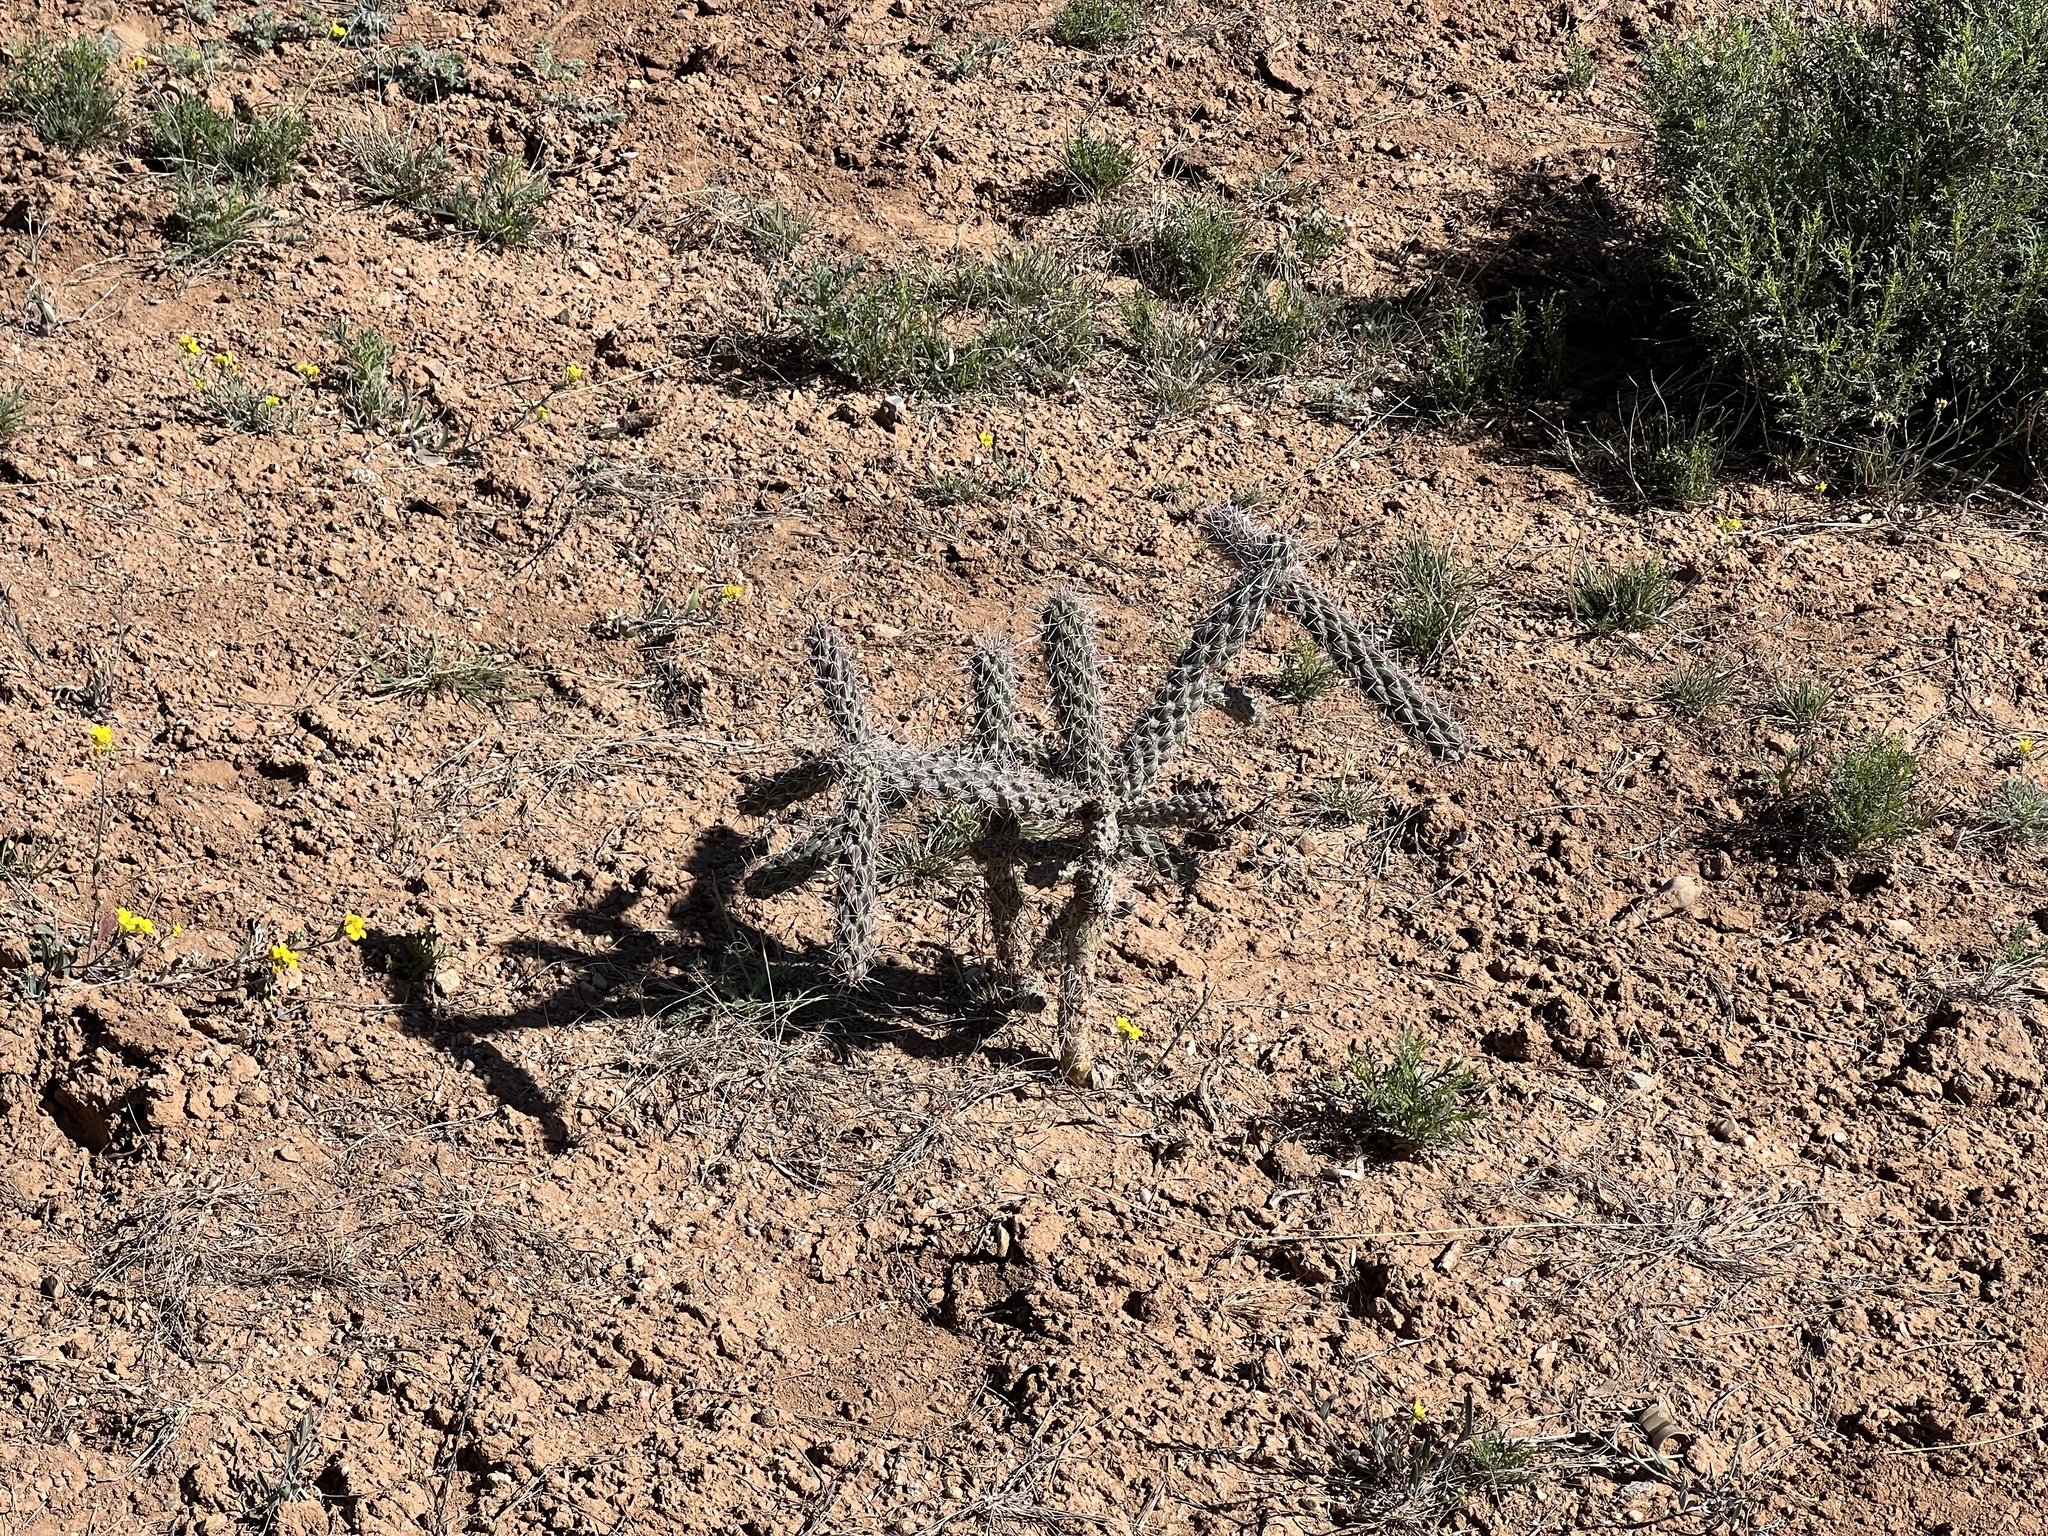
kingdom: Plantae
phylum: Tracheophyta
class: Magnoliopsida
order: Caryophyllales
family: Cactaceae
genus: Cylindropuntia
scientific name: Cylindropuntia imbricata
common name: Candelabrum cactus
